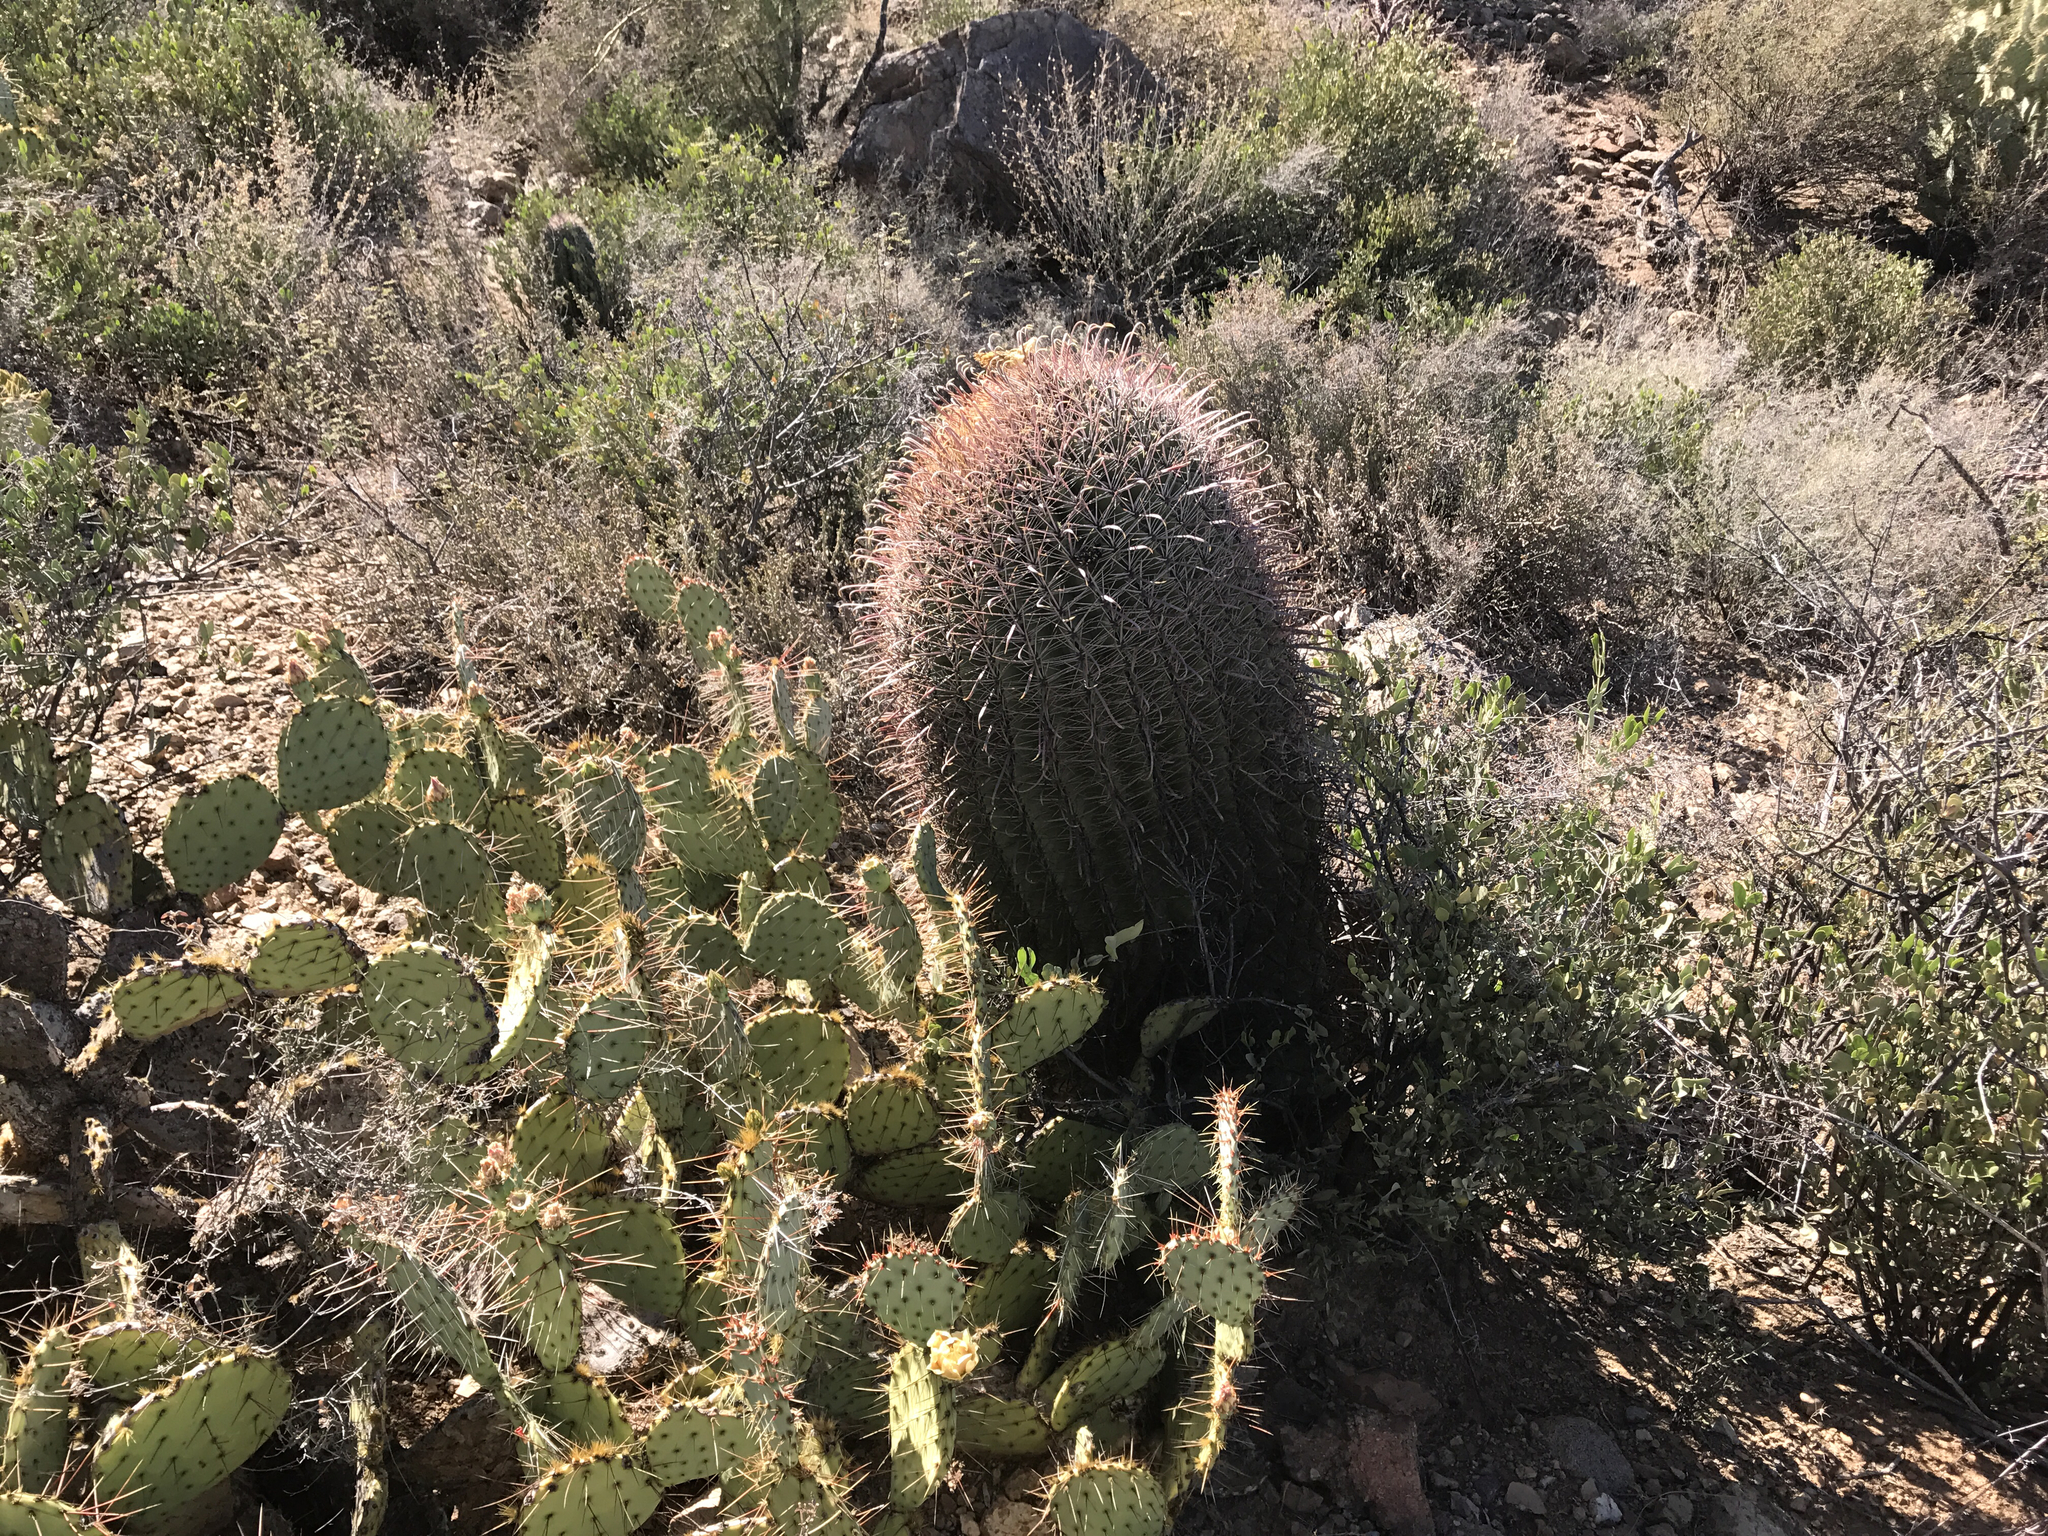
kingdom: Plantae
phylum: Tracheophyta
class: Magnoliopsida
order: Caryophyllales
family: Cactaceae
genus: Ferocactus
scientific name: Ferocactus wislizeni
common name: Candy barrel cactus
